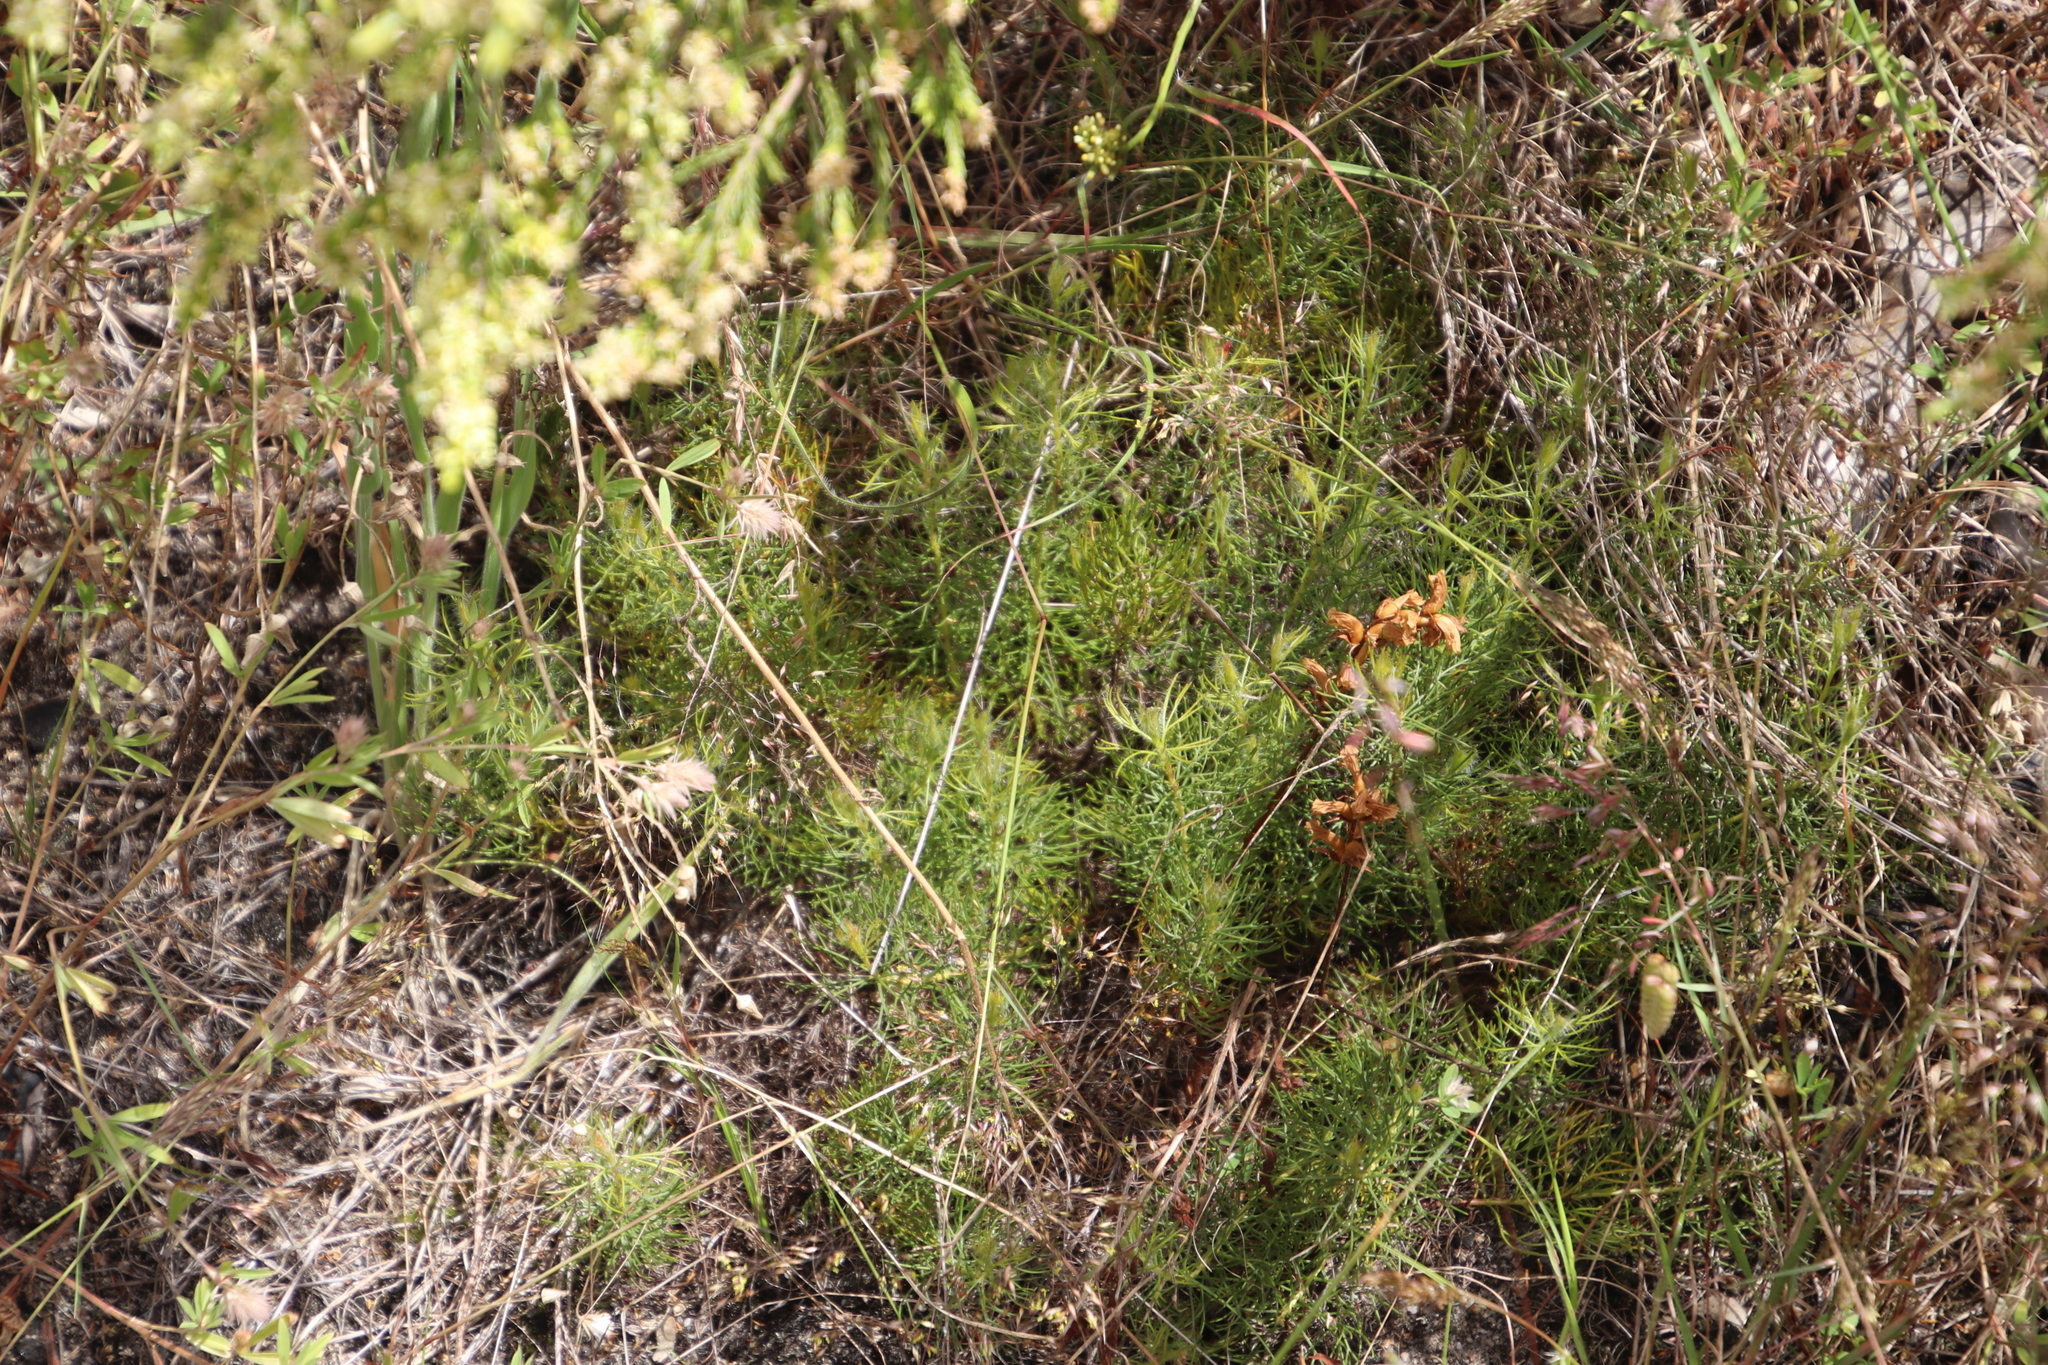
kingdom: Plantae
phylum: Tracheophyta
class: Magnoliopsida
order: Proteales
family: Proteaceae
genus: Serruria
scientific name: Serruria cyanoides
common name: Wynberg spiderhead
